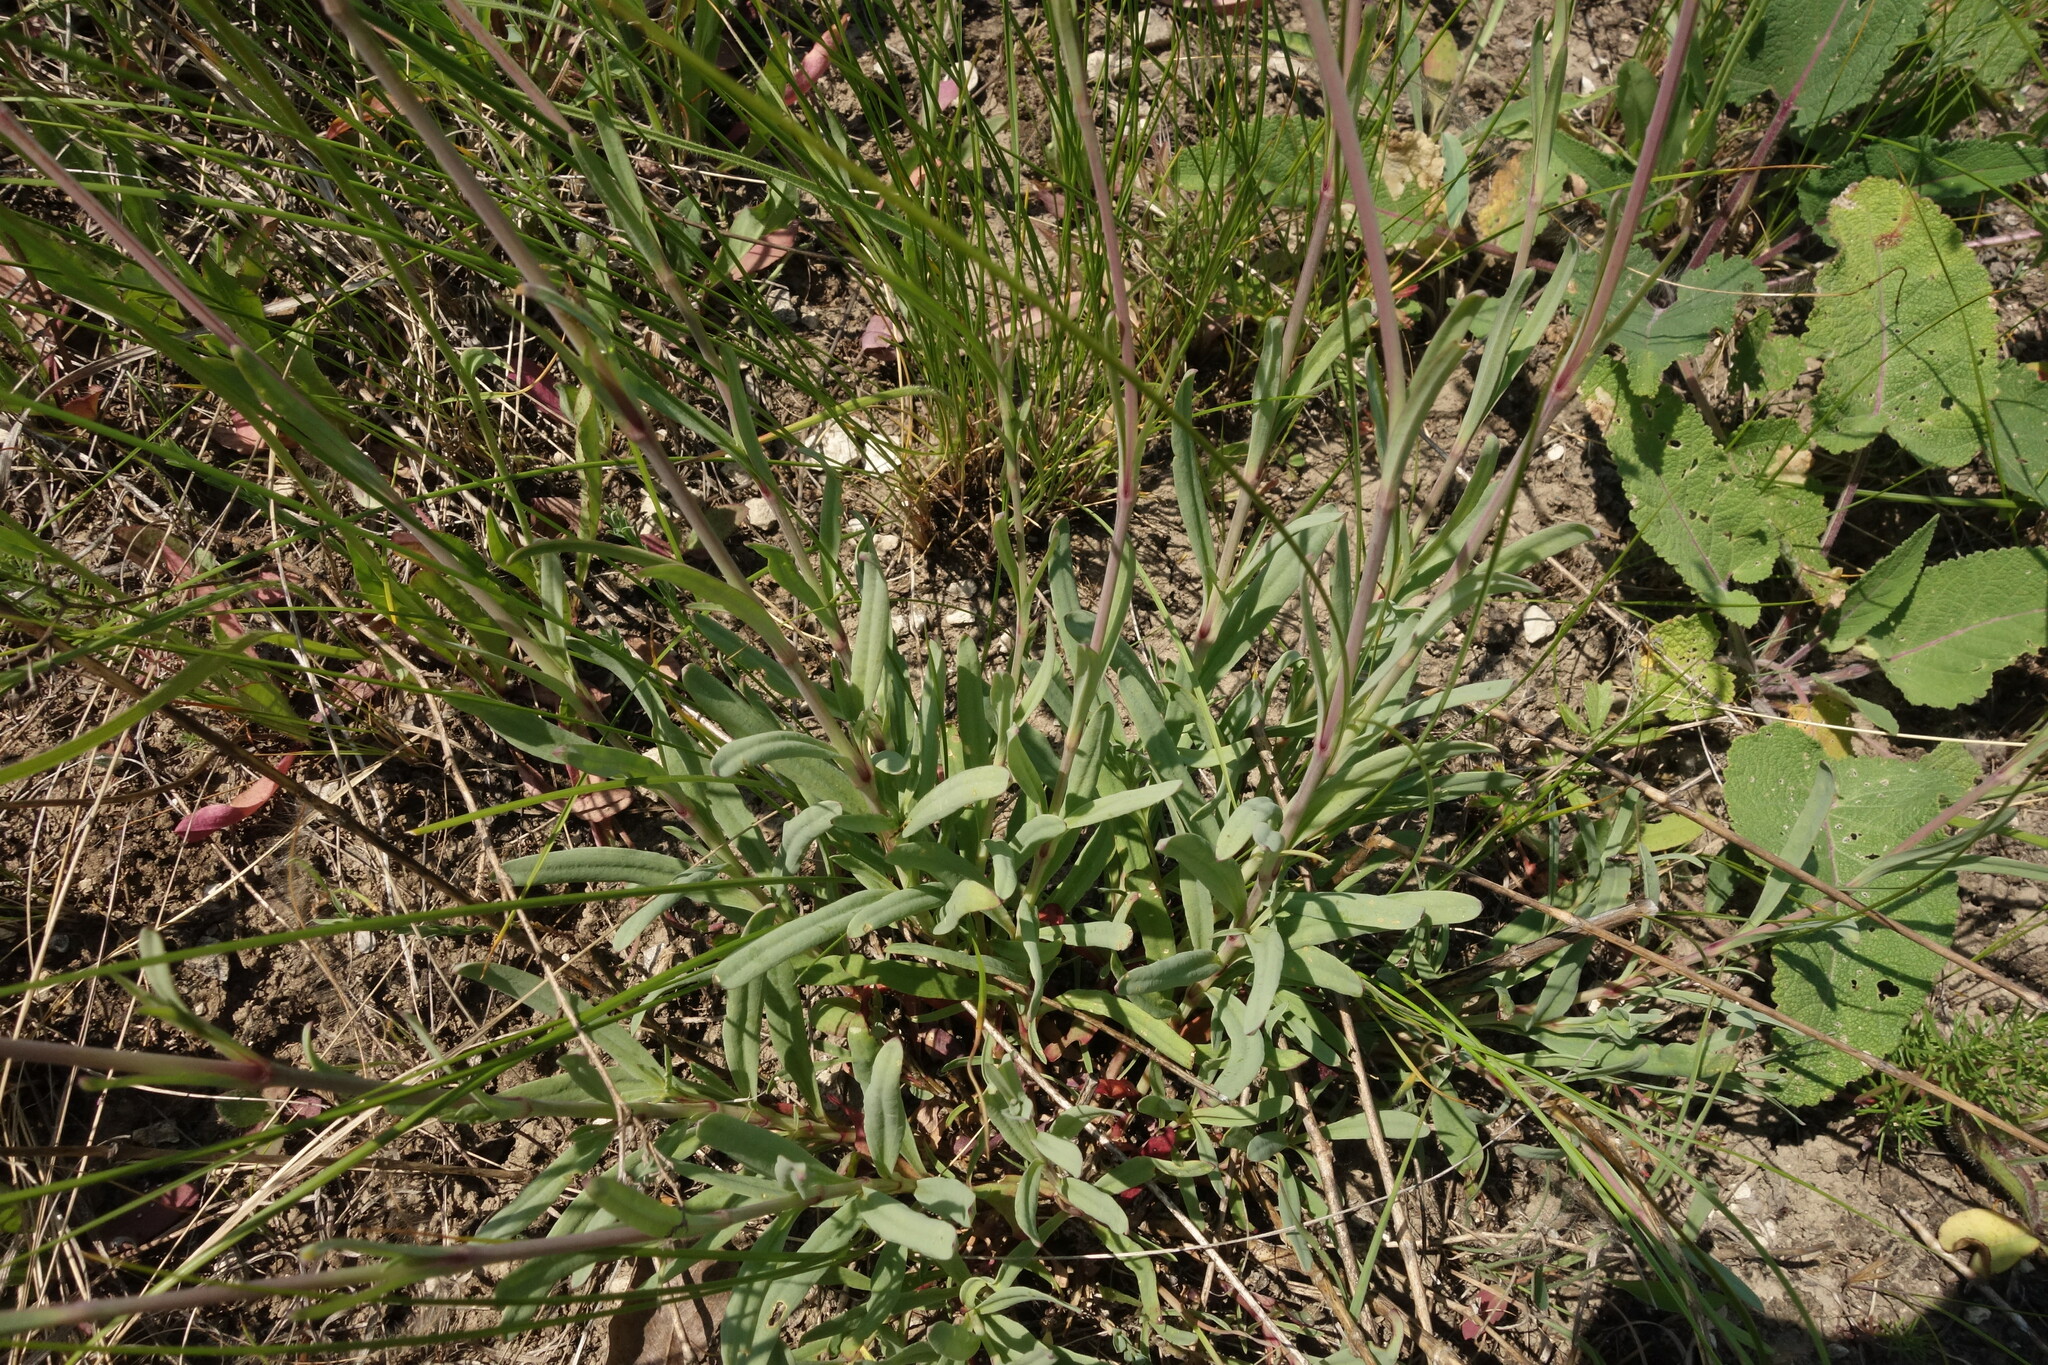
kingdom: Plantae
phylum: Tracheophyta
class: Magnoliopsida
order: Caryophyllales
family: Caryophyllaceae
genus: Gypsophila
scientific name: Gypsophila altissima
